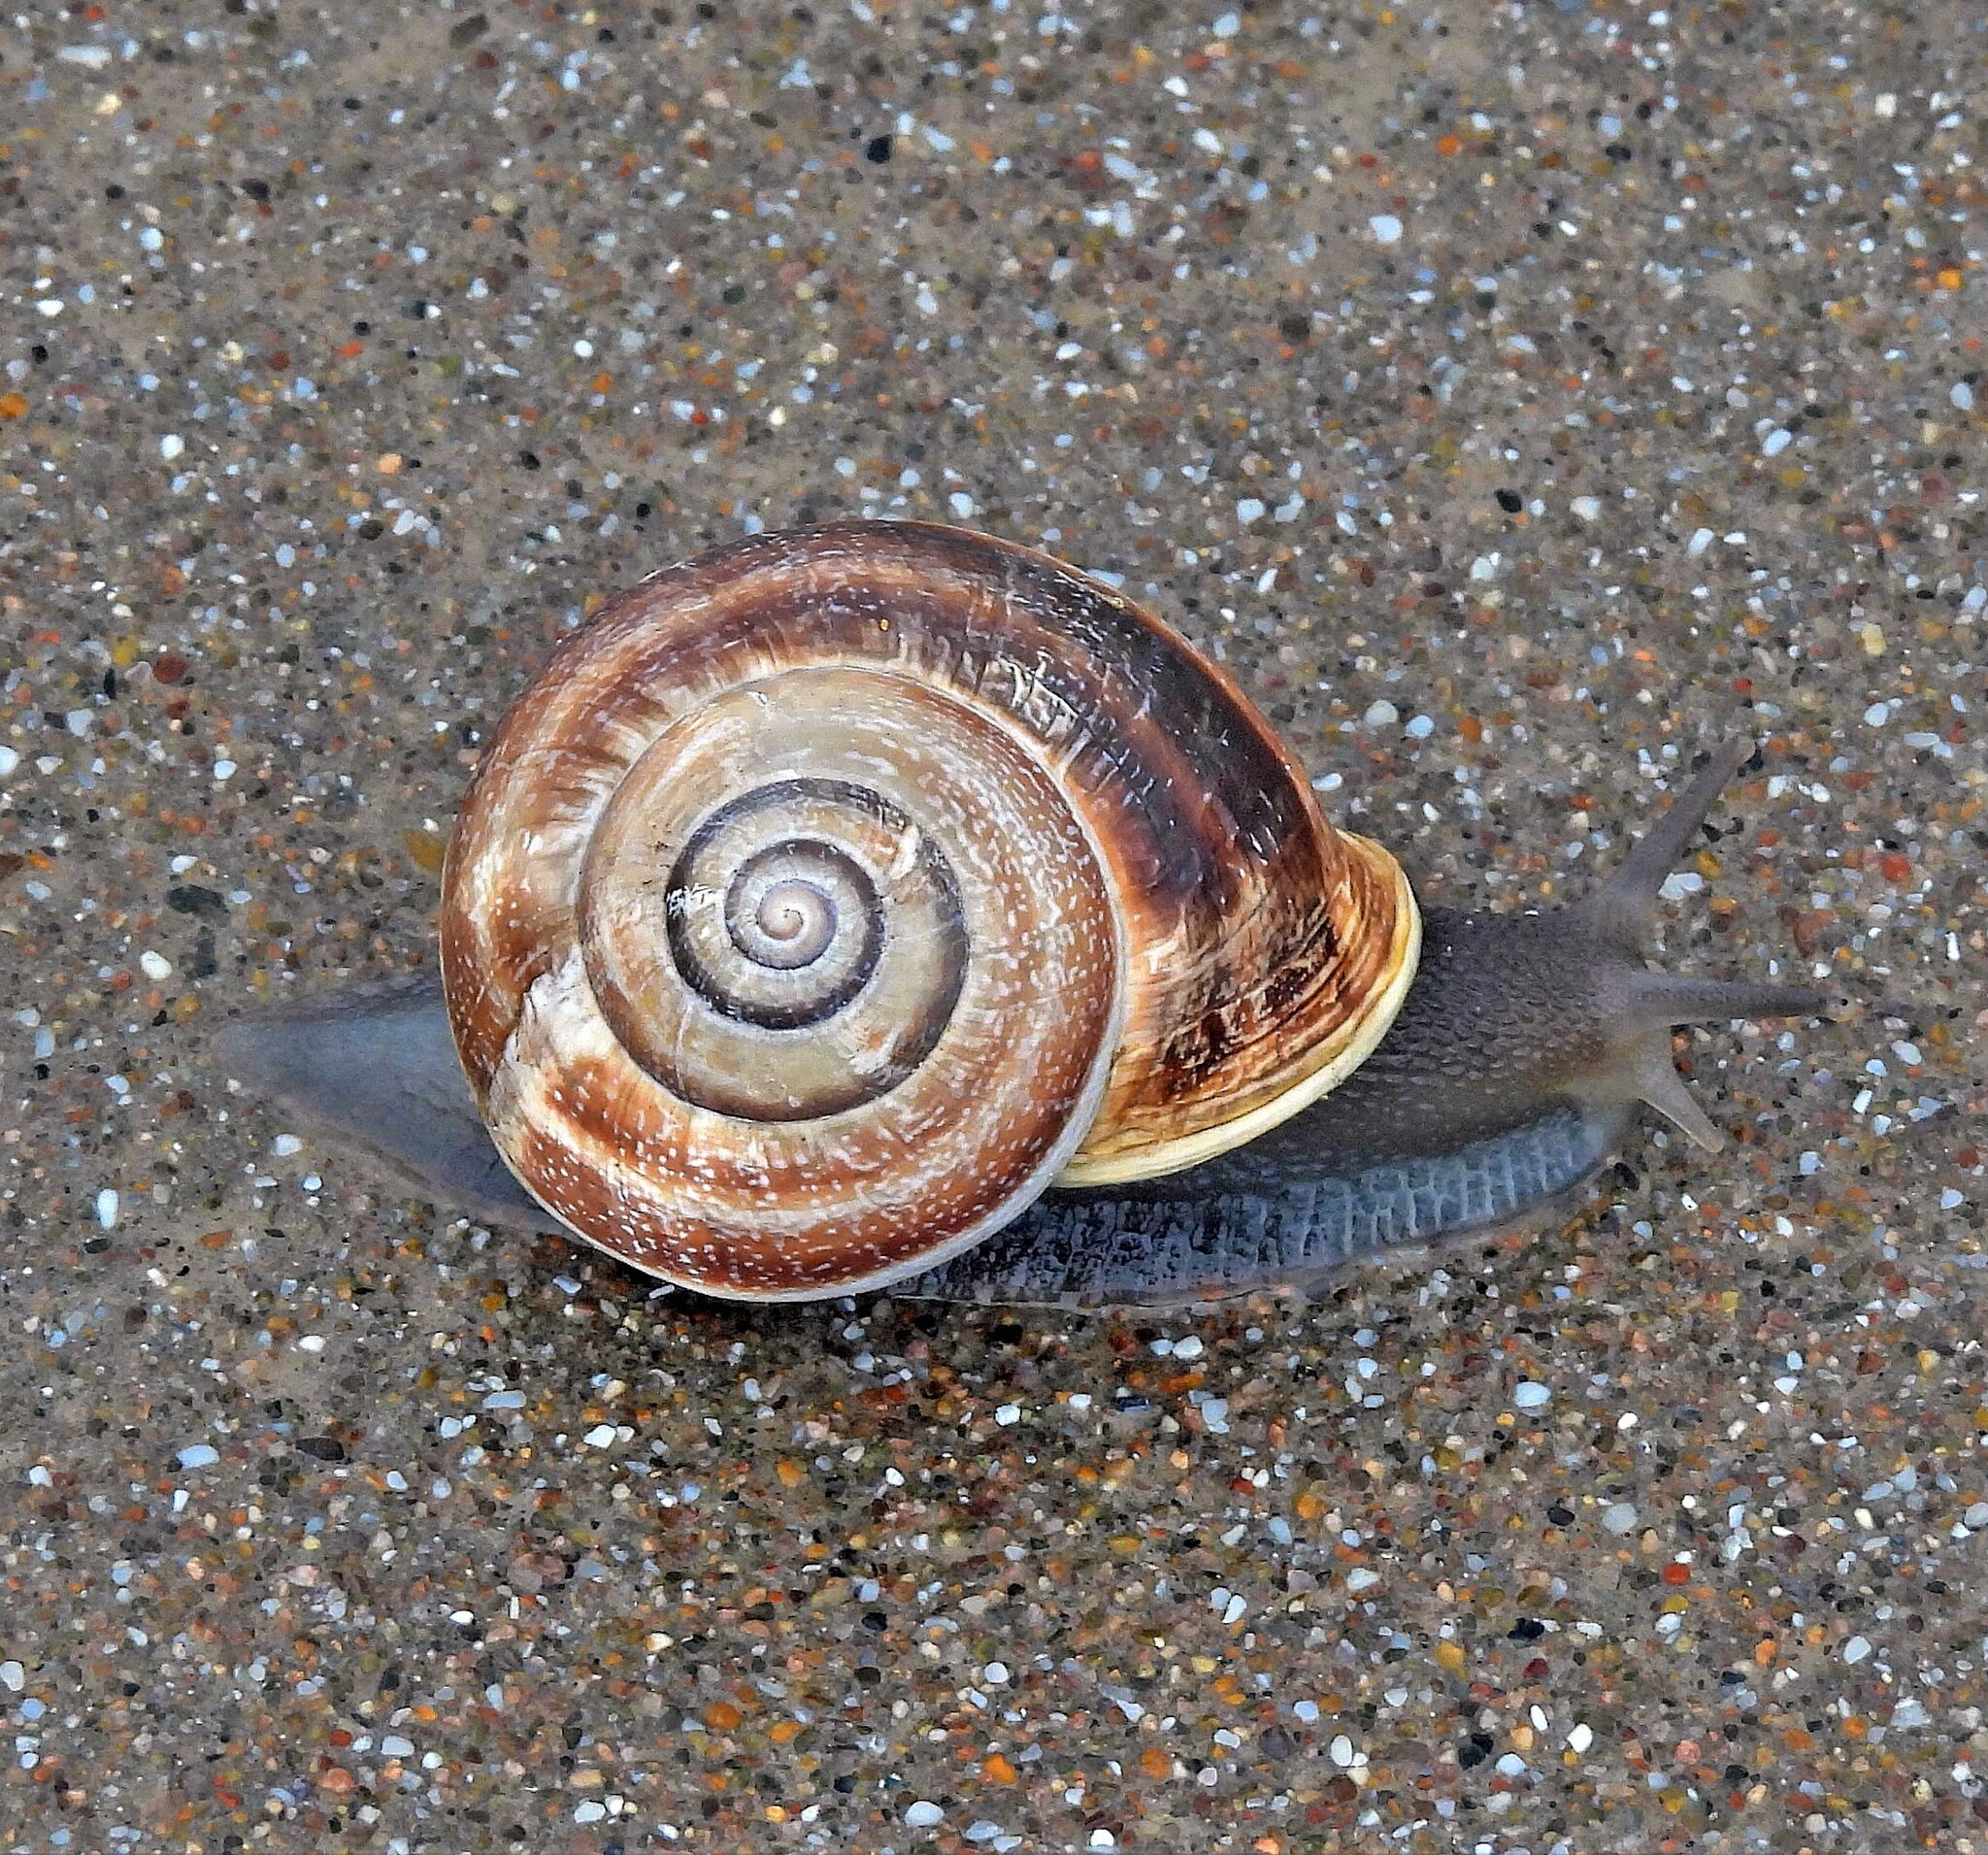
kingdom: Animalia
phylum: Mollusca
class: Gastropoda
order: Stylommatophora
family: Helicidae
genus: Otala
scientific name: Otala punctata
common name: Milk snail
